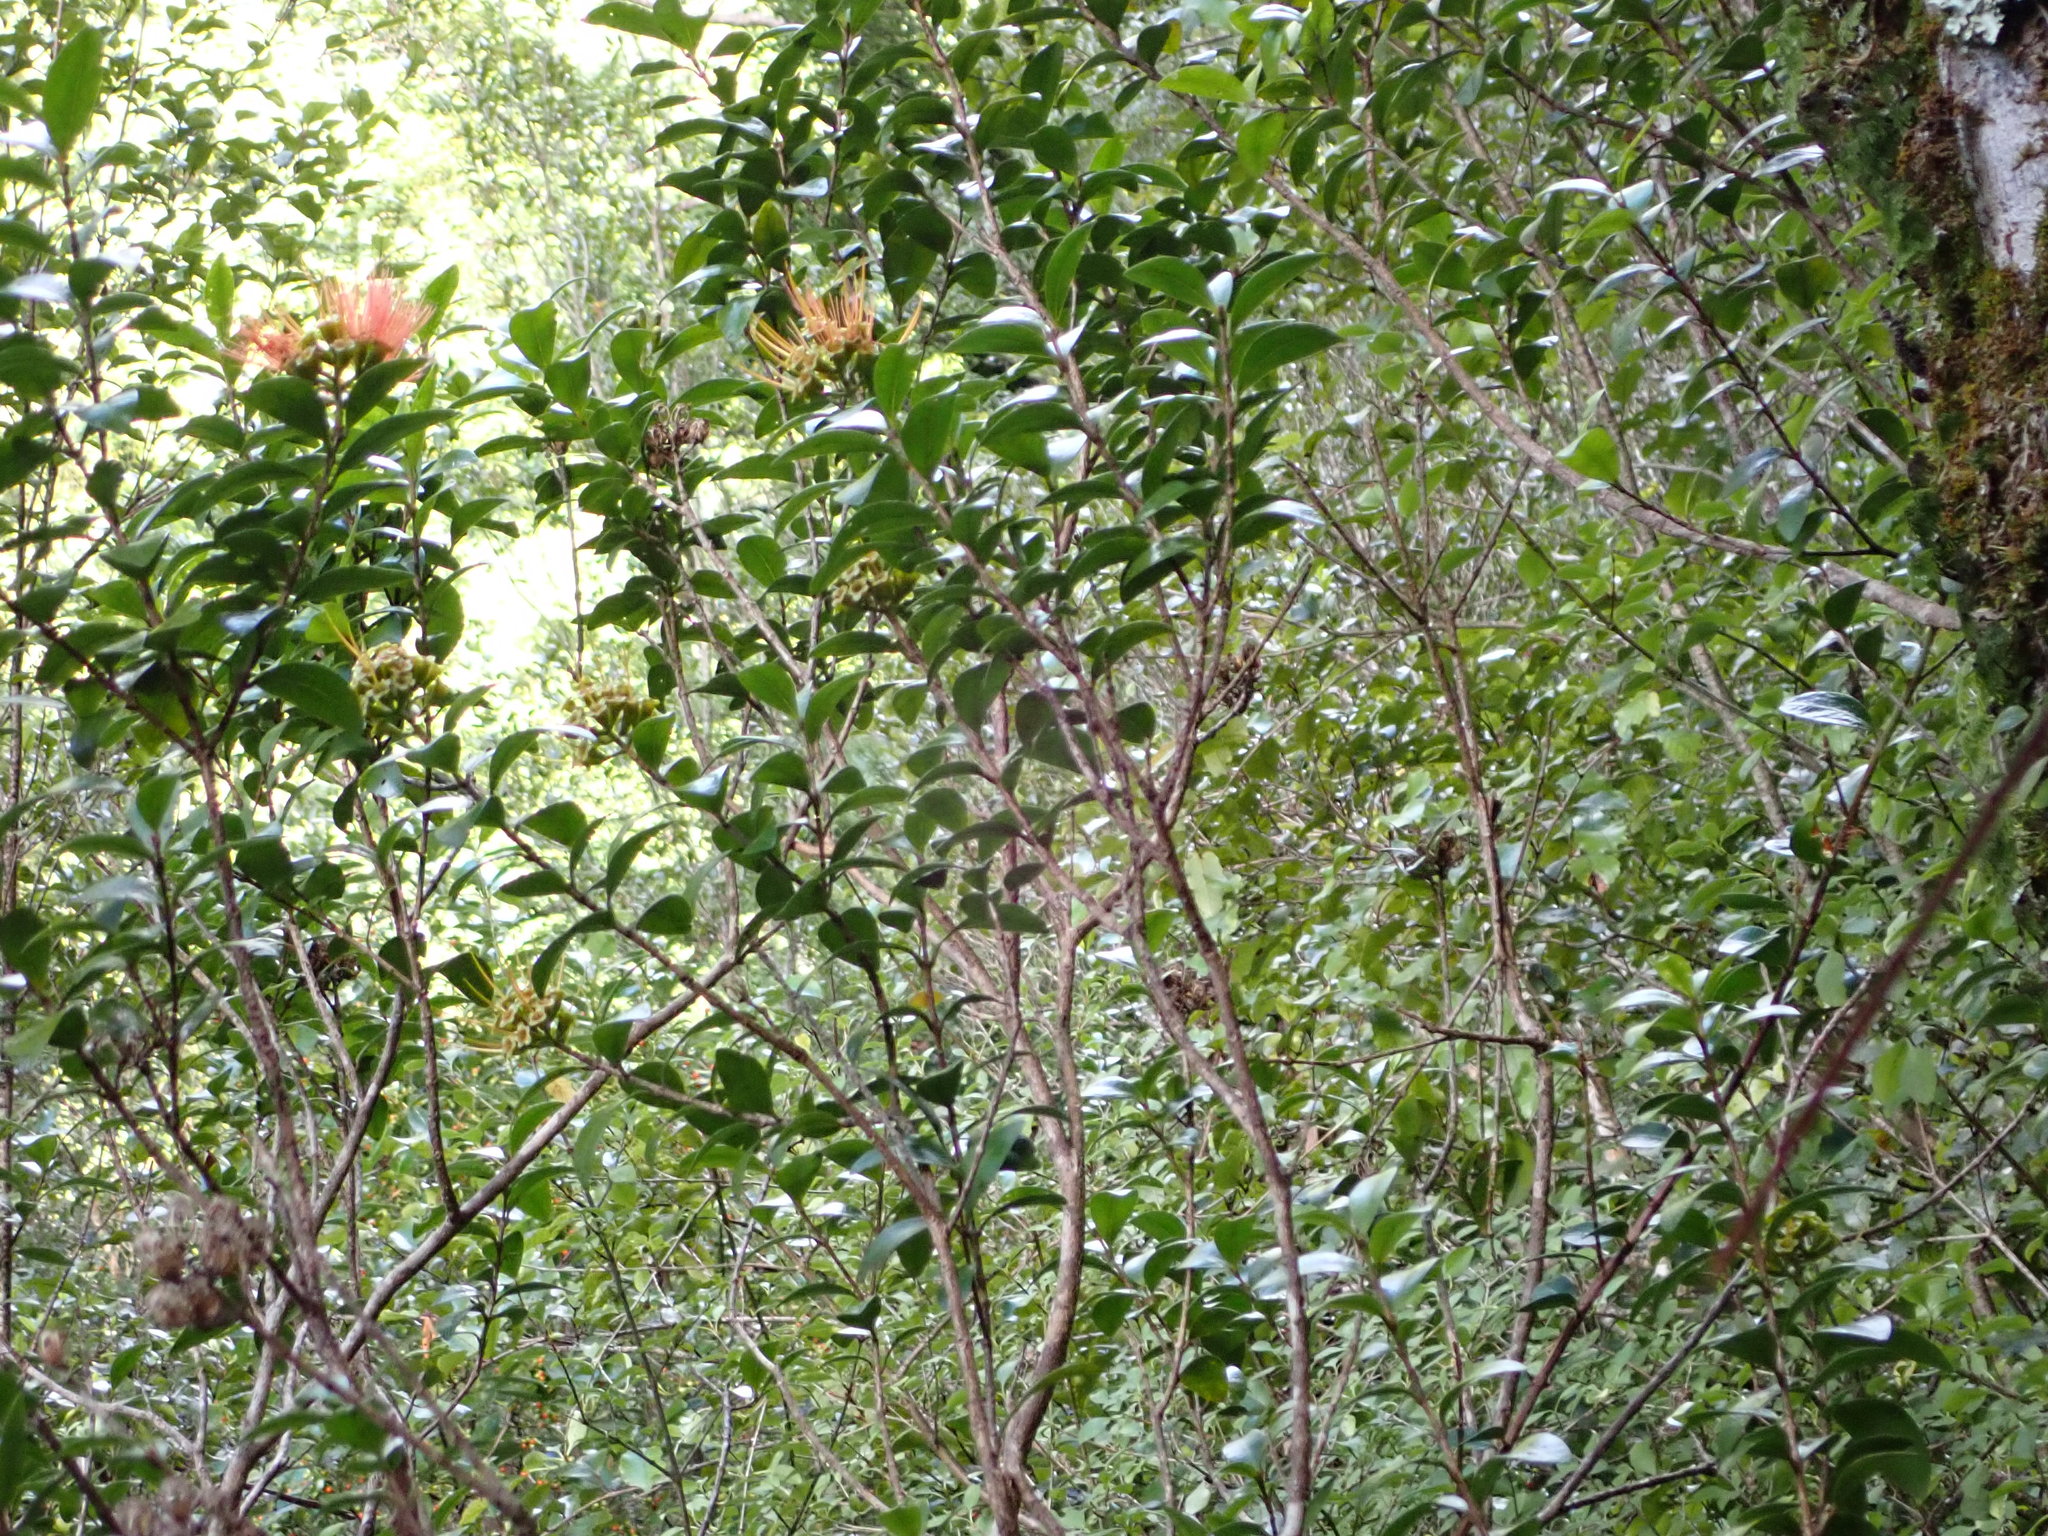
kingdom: Plantae
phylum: Tracheophyta
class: Magnoliopsida
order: Myrtales
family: Myrtaceae
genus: Metrosideros
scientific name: Metrosideros fulgens
